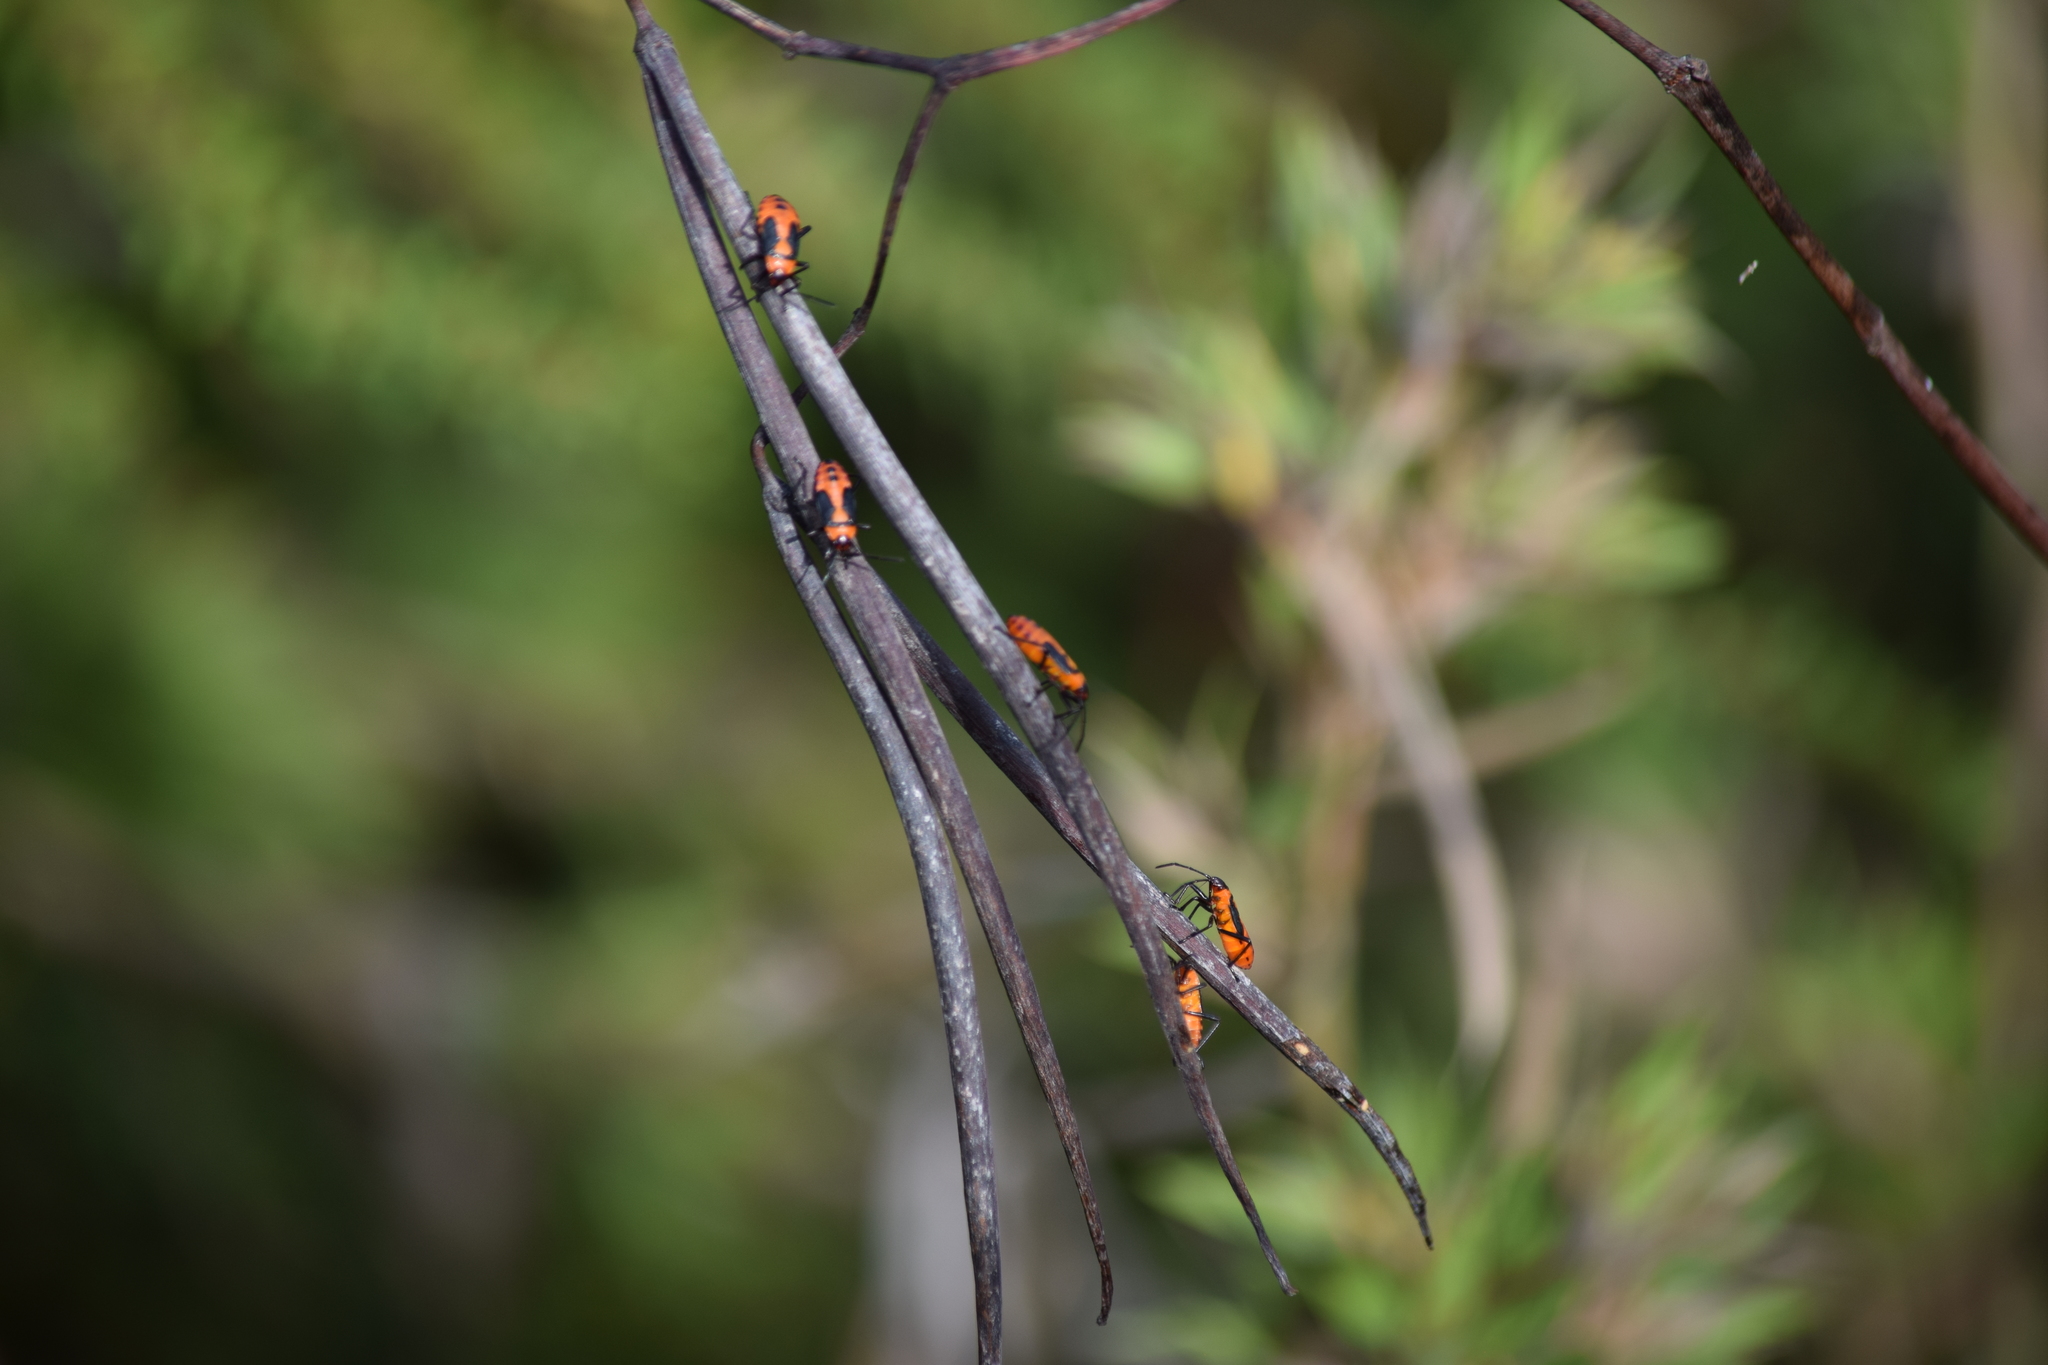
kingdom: Animalia
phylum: Arthropoda
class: Insecta
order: Hemiptera
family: Lygaeidae
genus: Oncopeltus
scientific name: Oncopeltus fasciatus
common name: Large milkweed bug
